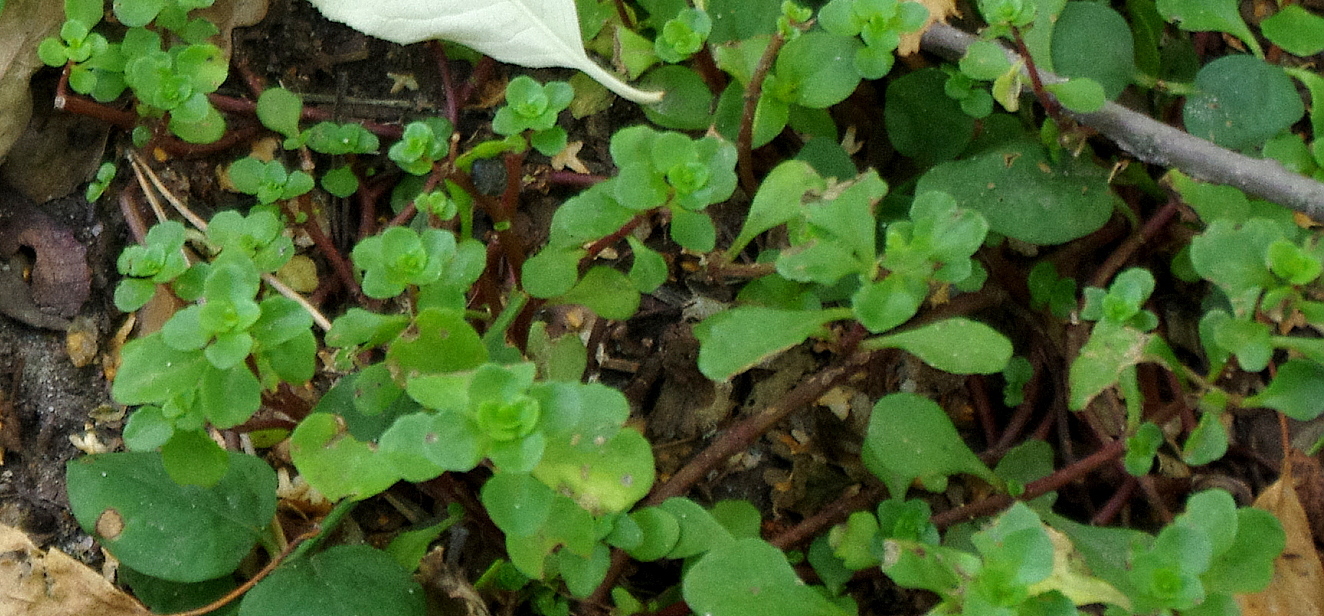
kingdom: Plantae
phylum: Tracheophyta
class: Magnoliopsida
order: Saxifragales
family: Crassulaceae
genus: Phedimus
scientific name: Phedimus stolonifer
